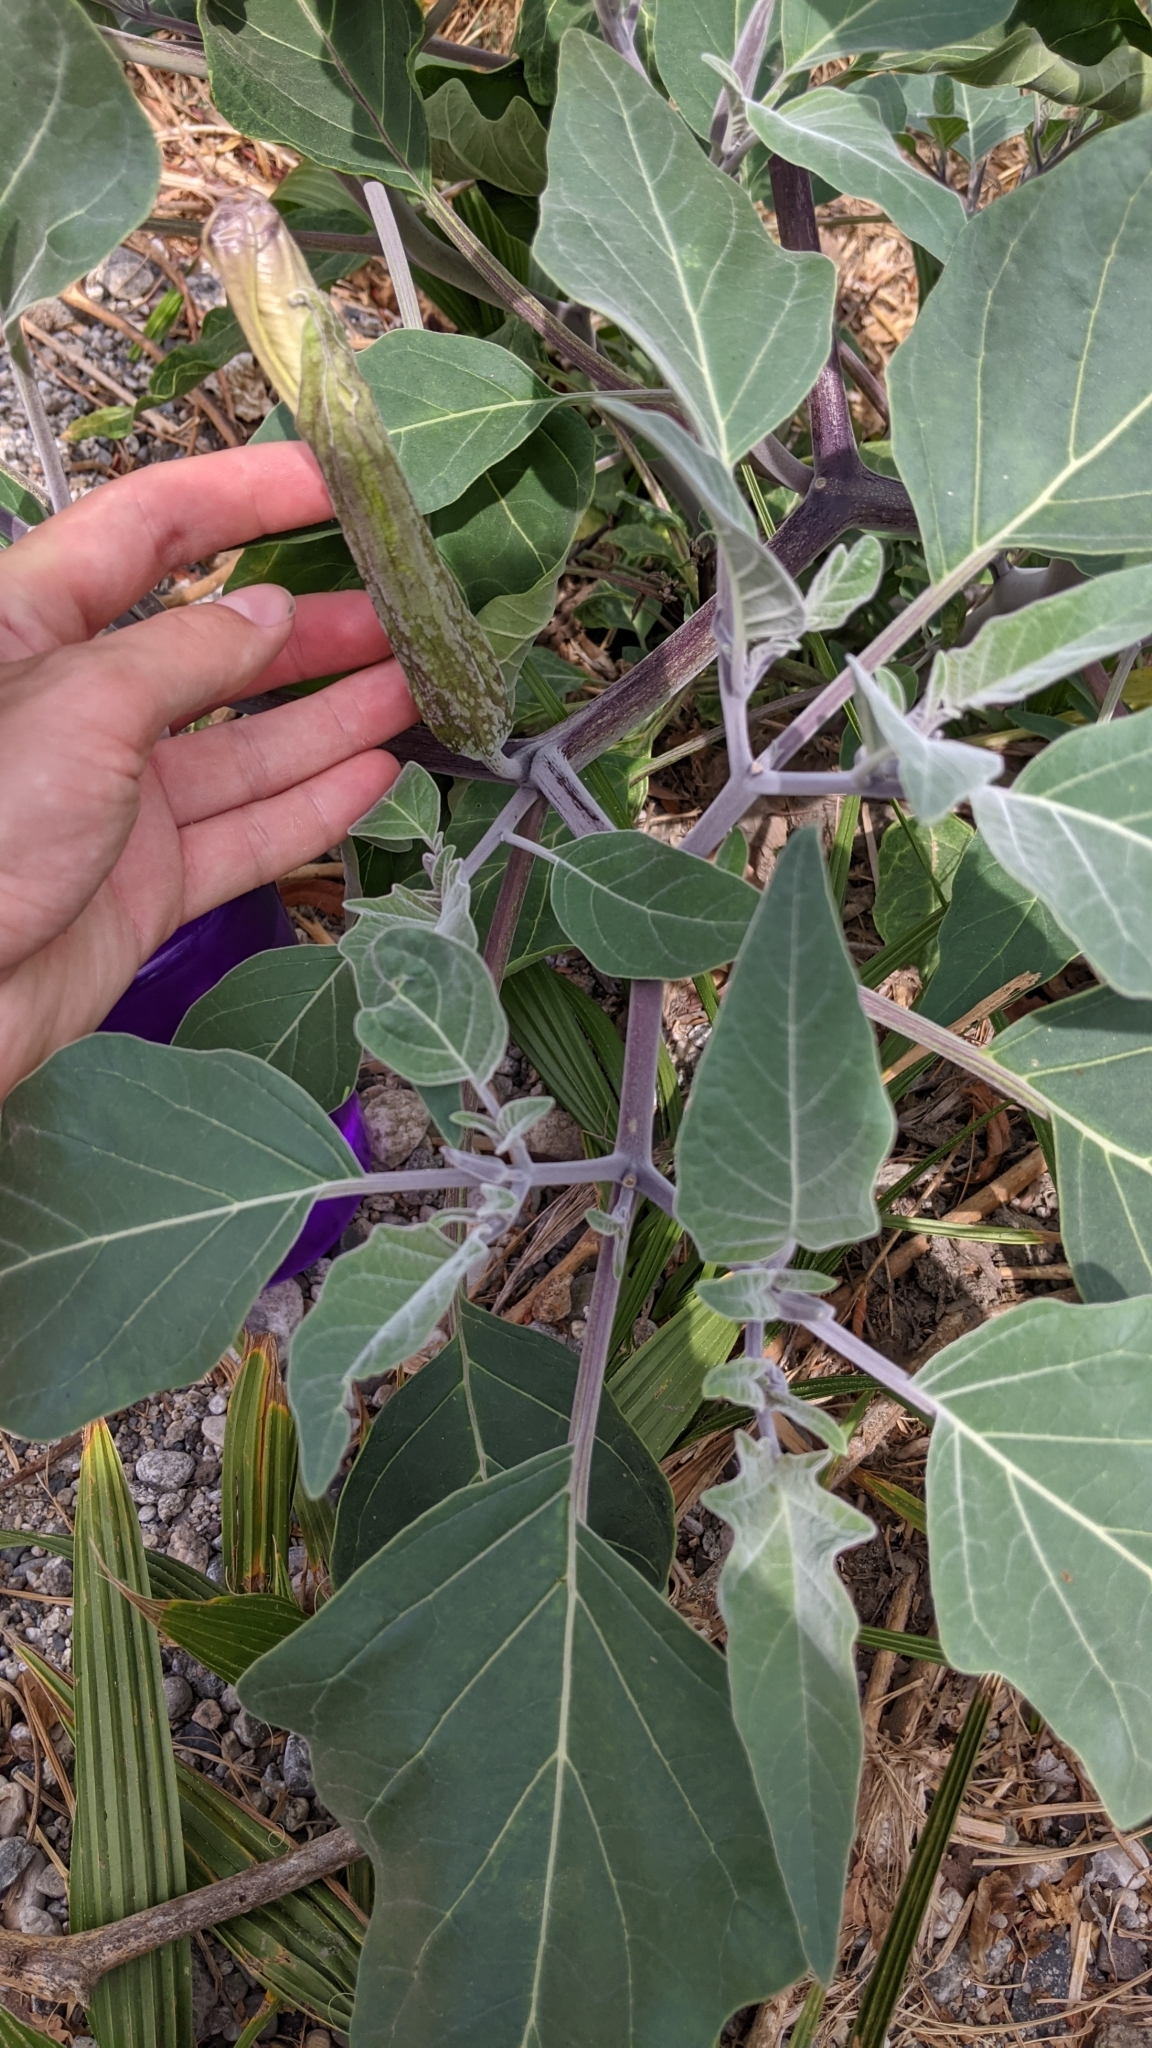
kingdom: Plantae
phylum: Tracheophyta
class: Magnoliopsida
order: Solanales
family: Solanaceae
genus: Datura
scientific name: Datura wrightii
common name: Sacred thorn-apple
